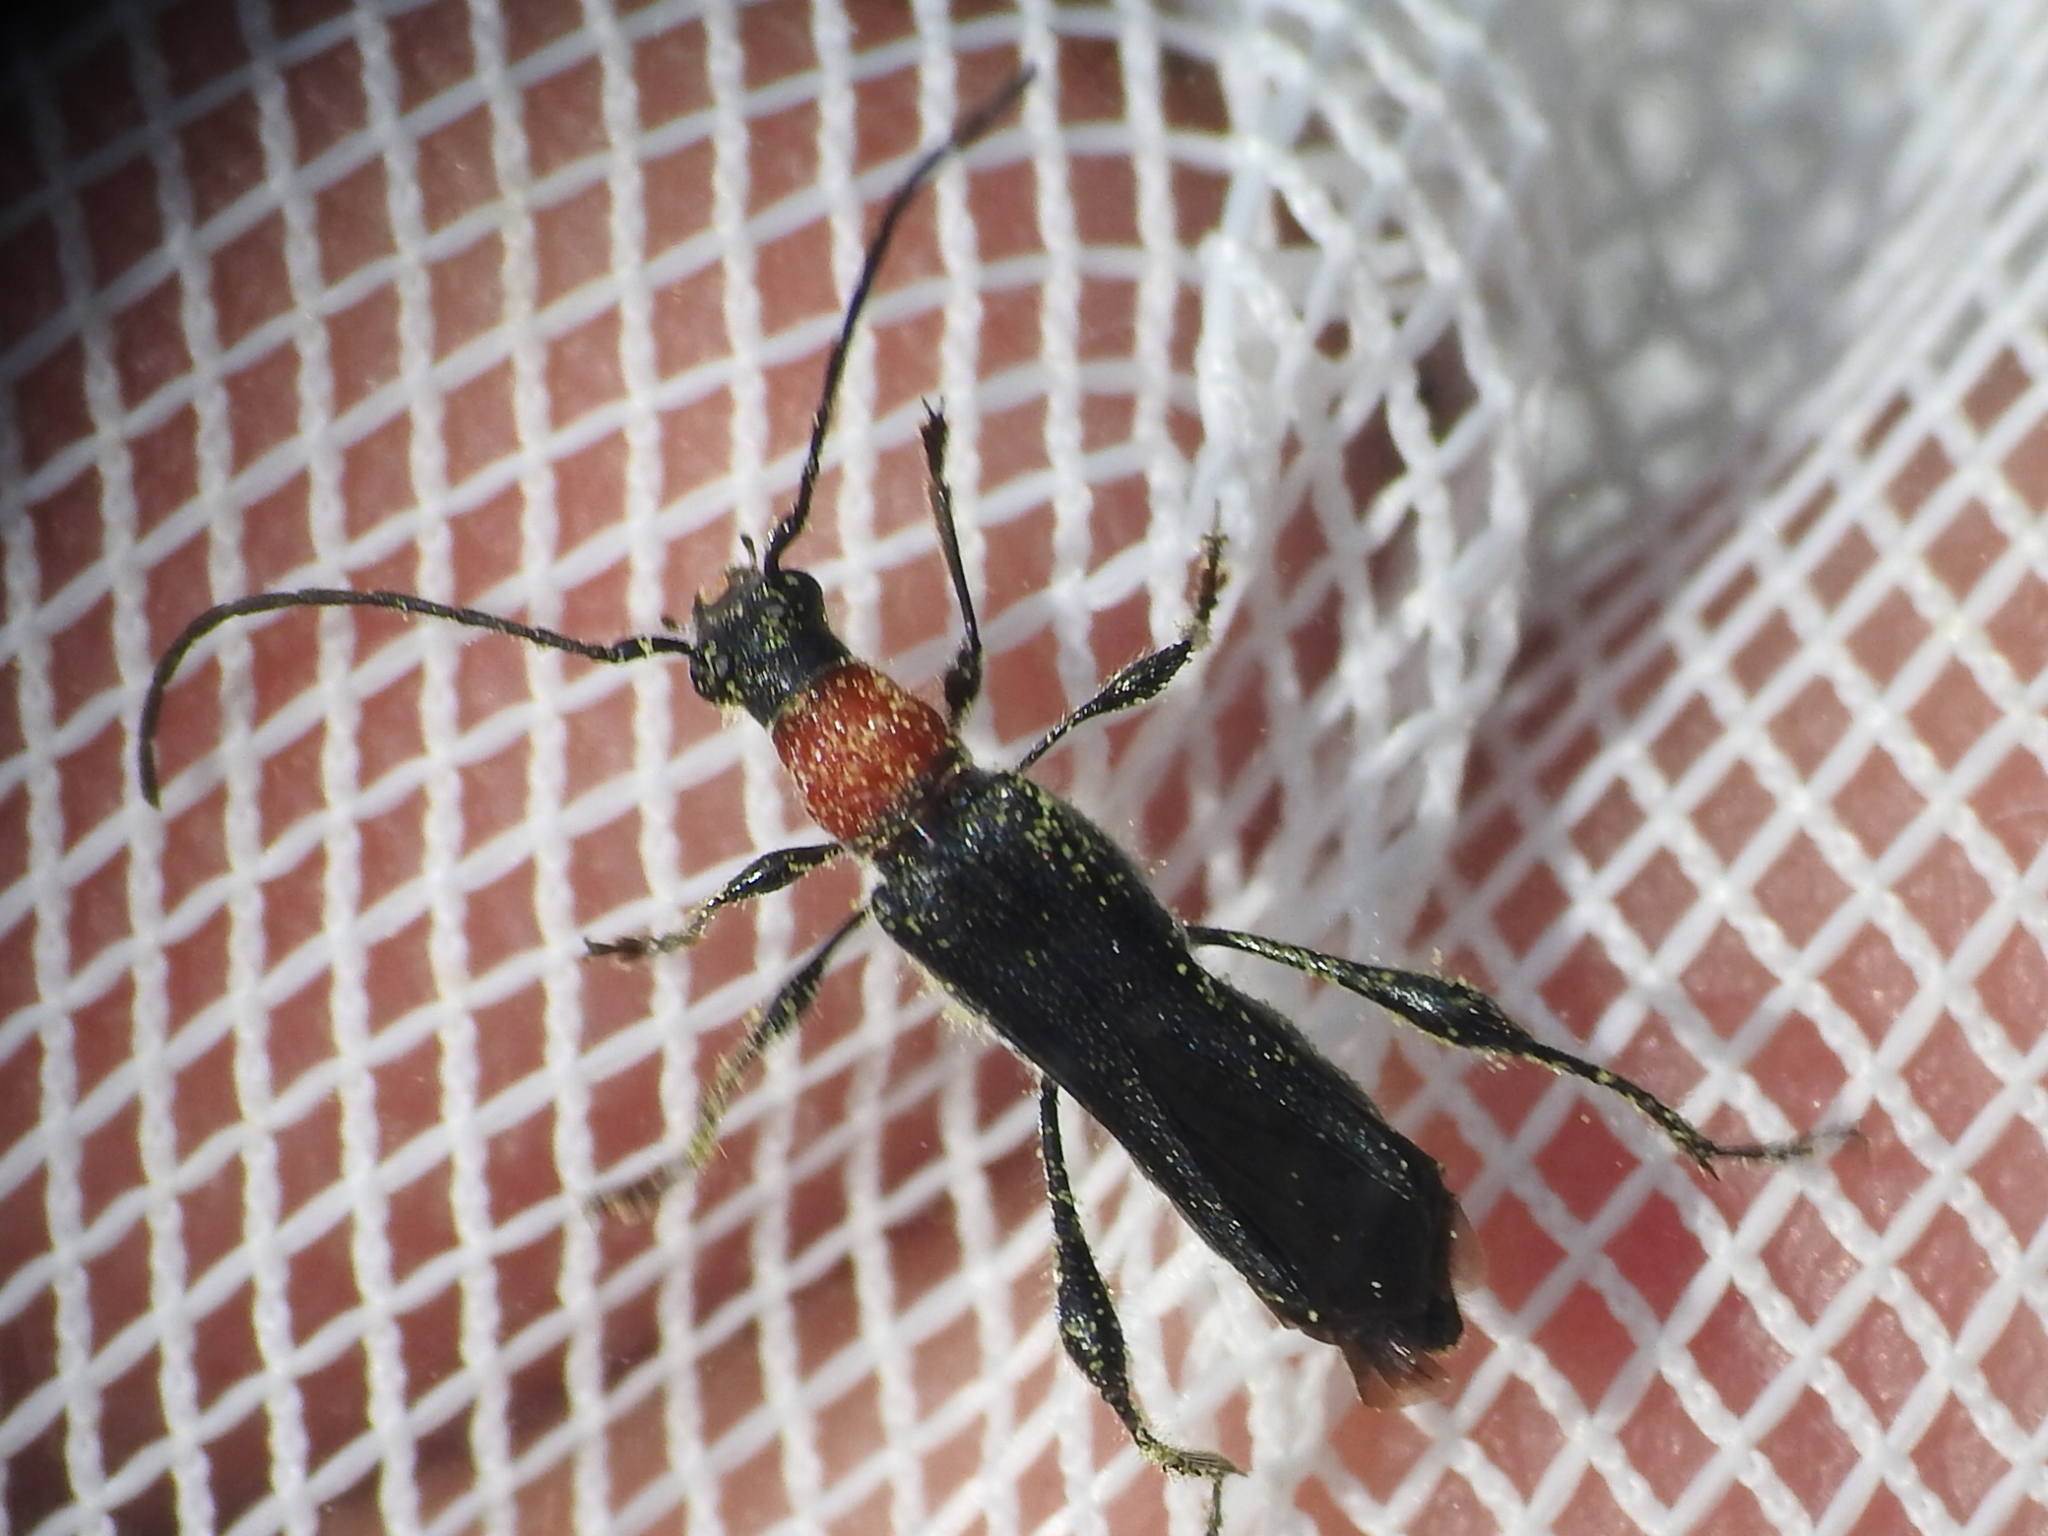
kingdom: Animalia
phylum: Arthropoda
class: Insecta
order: Coleoptera
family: Cerambycidae
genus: Callimoxys
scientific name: Callimoxys sanguinicollis
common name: Blood-necked longhorn beetle
